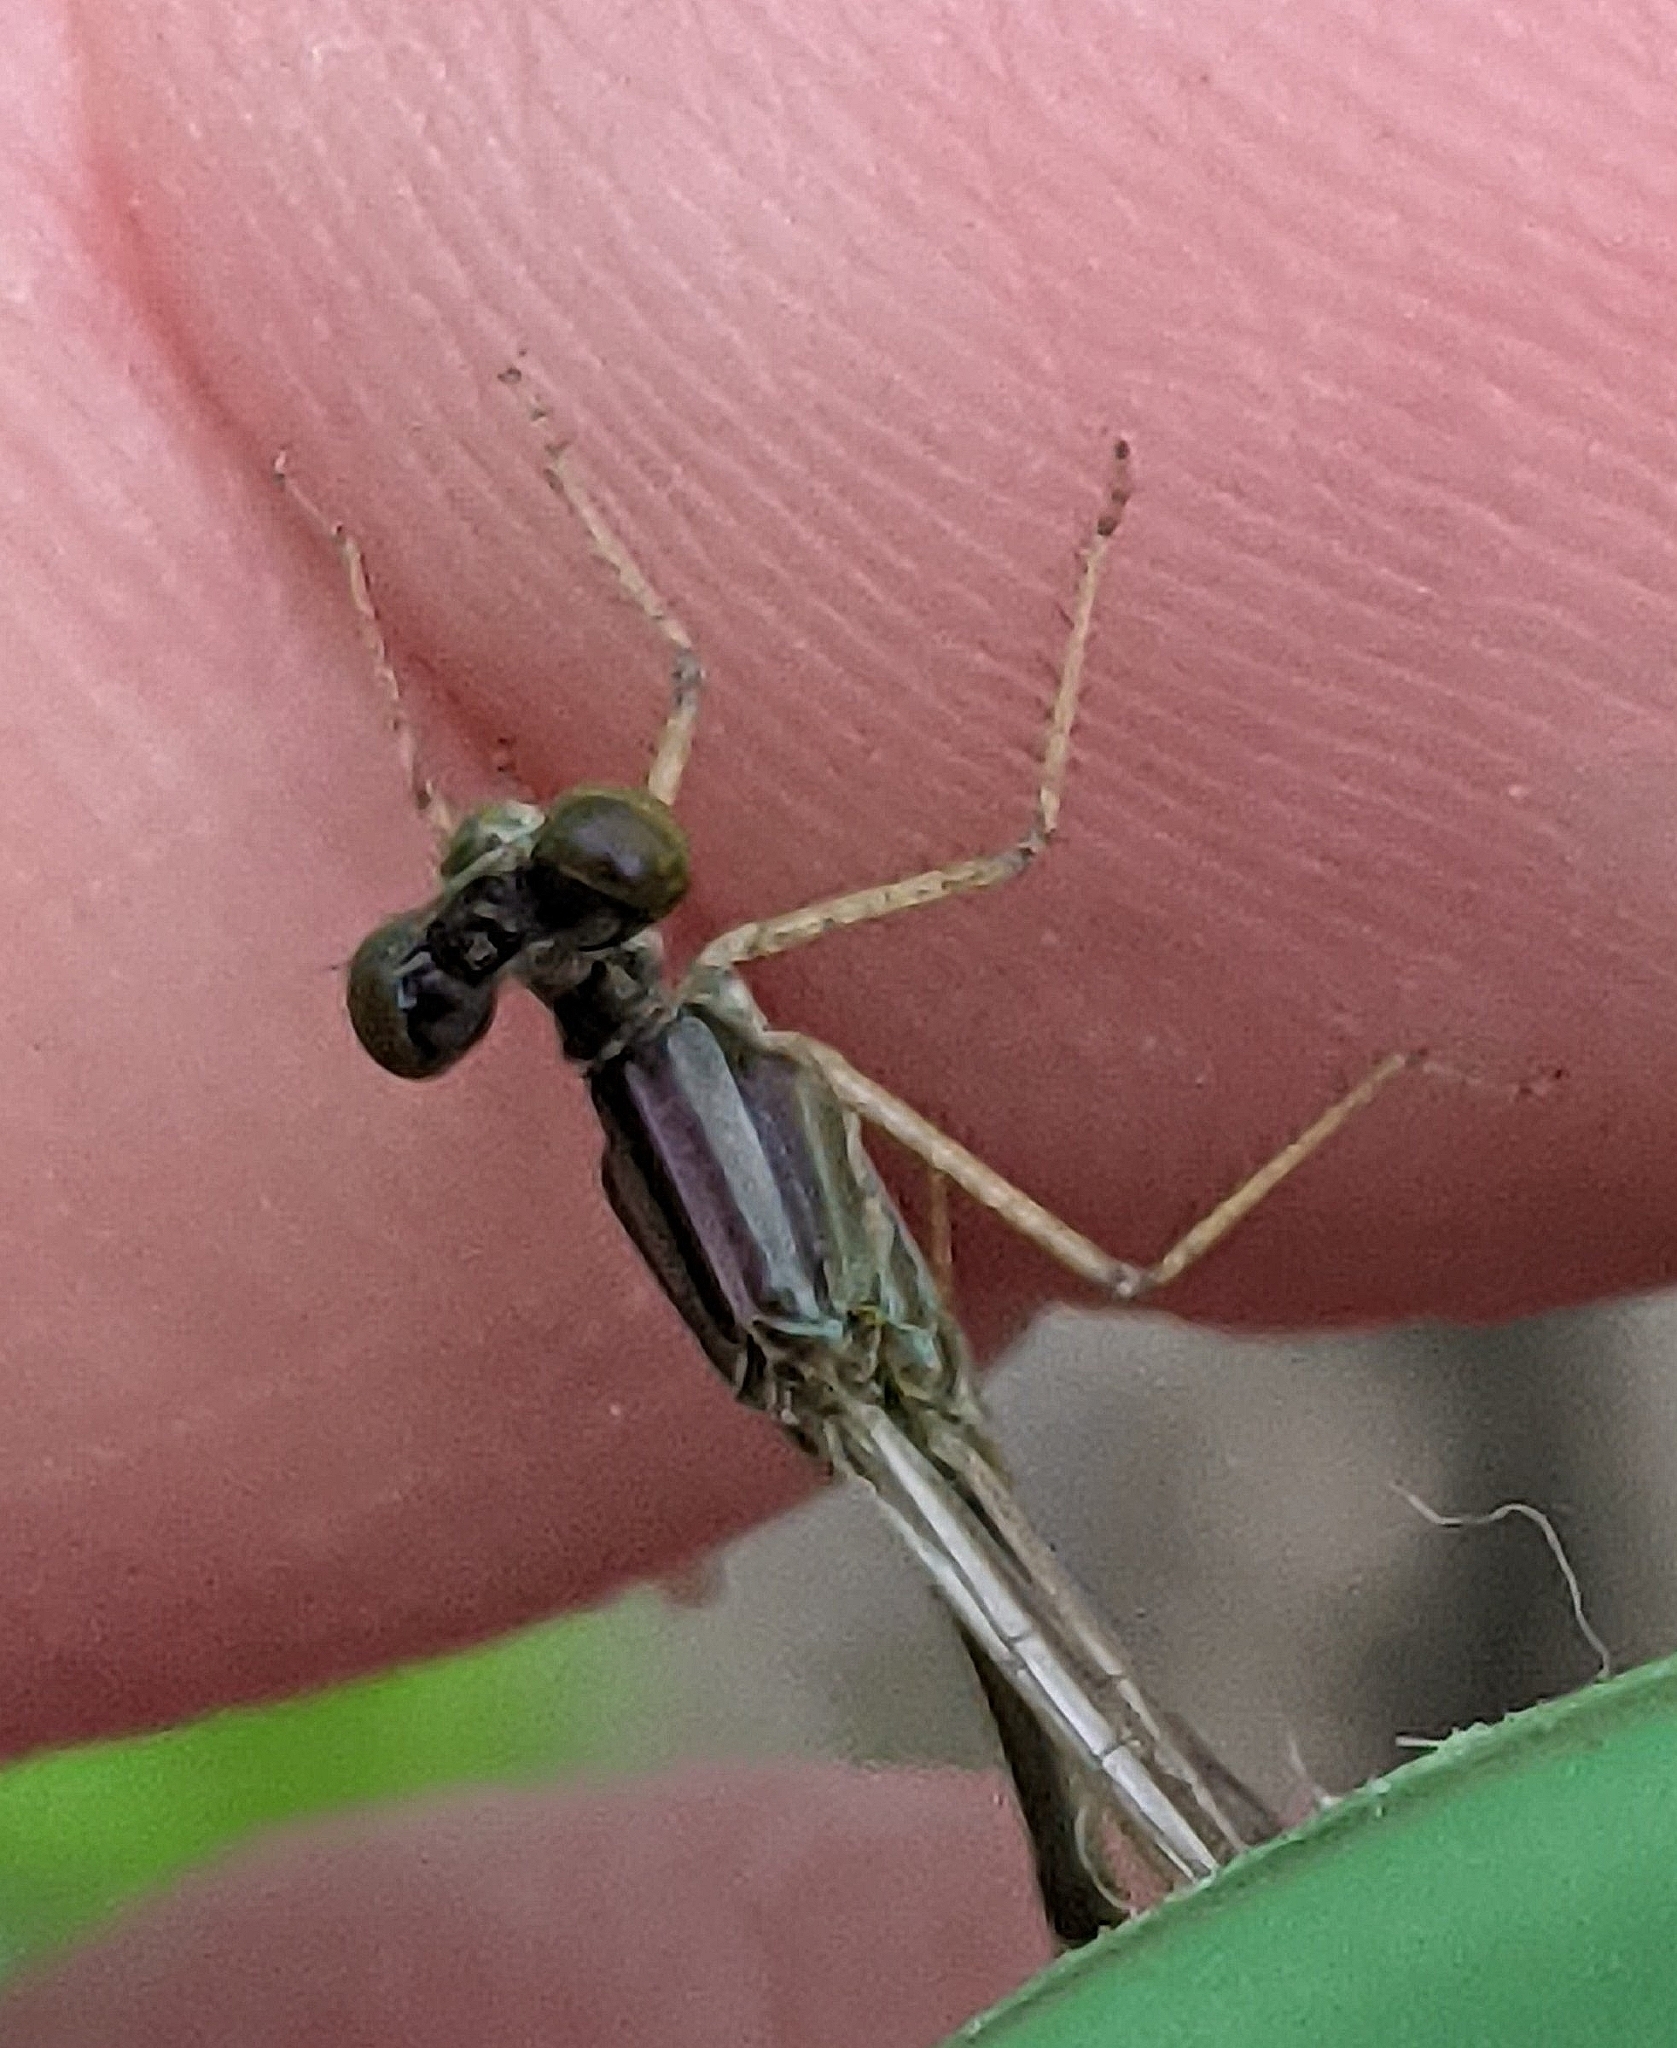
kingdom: Animalia
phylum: Arthropoda
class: Insecta
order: Odonata
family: Coenagrionidae
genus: Enallagma
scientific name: Enallagma signatum
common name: Orange bluet
